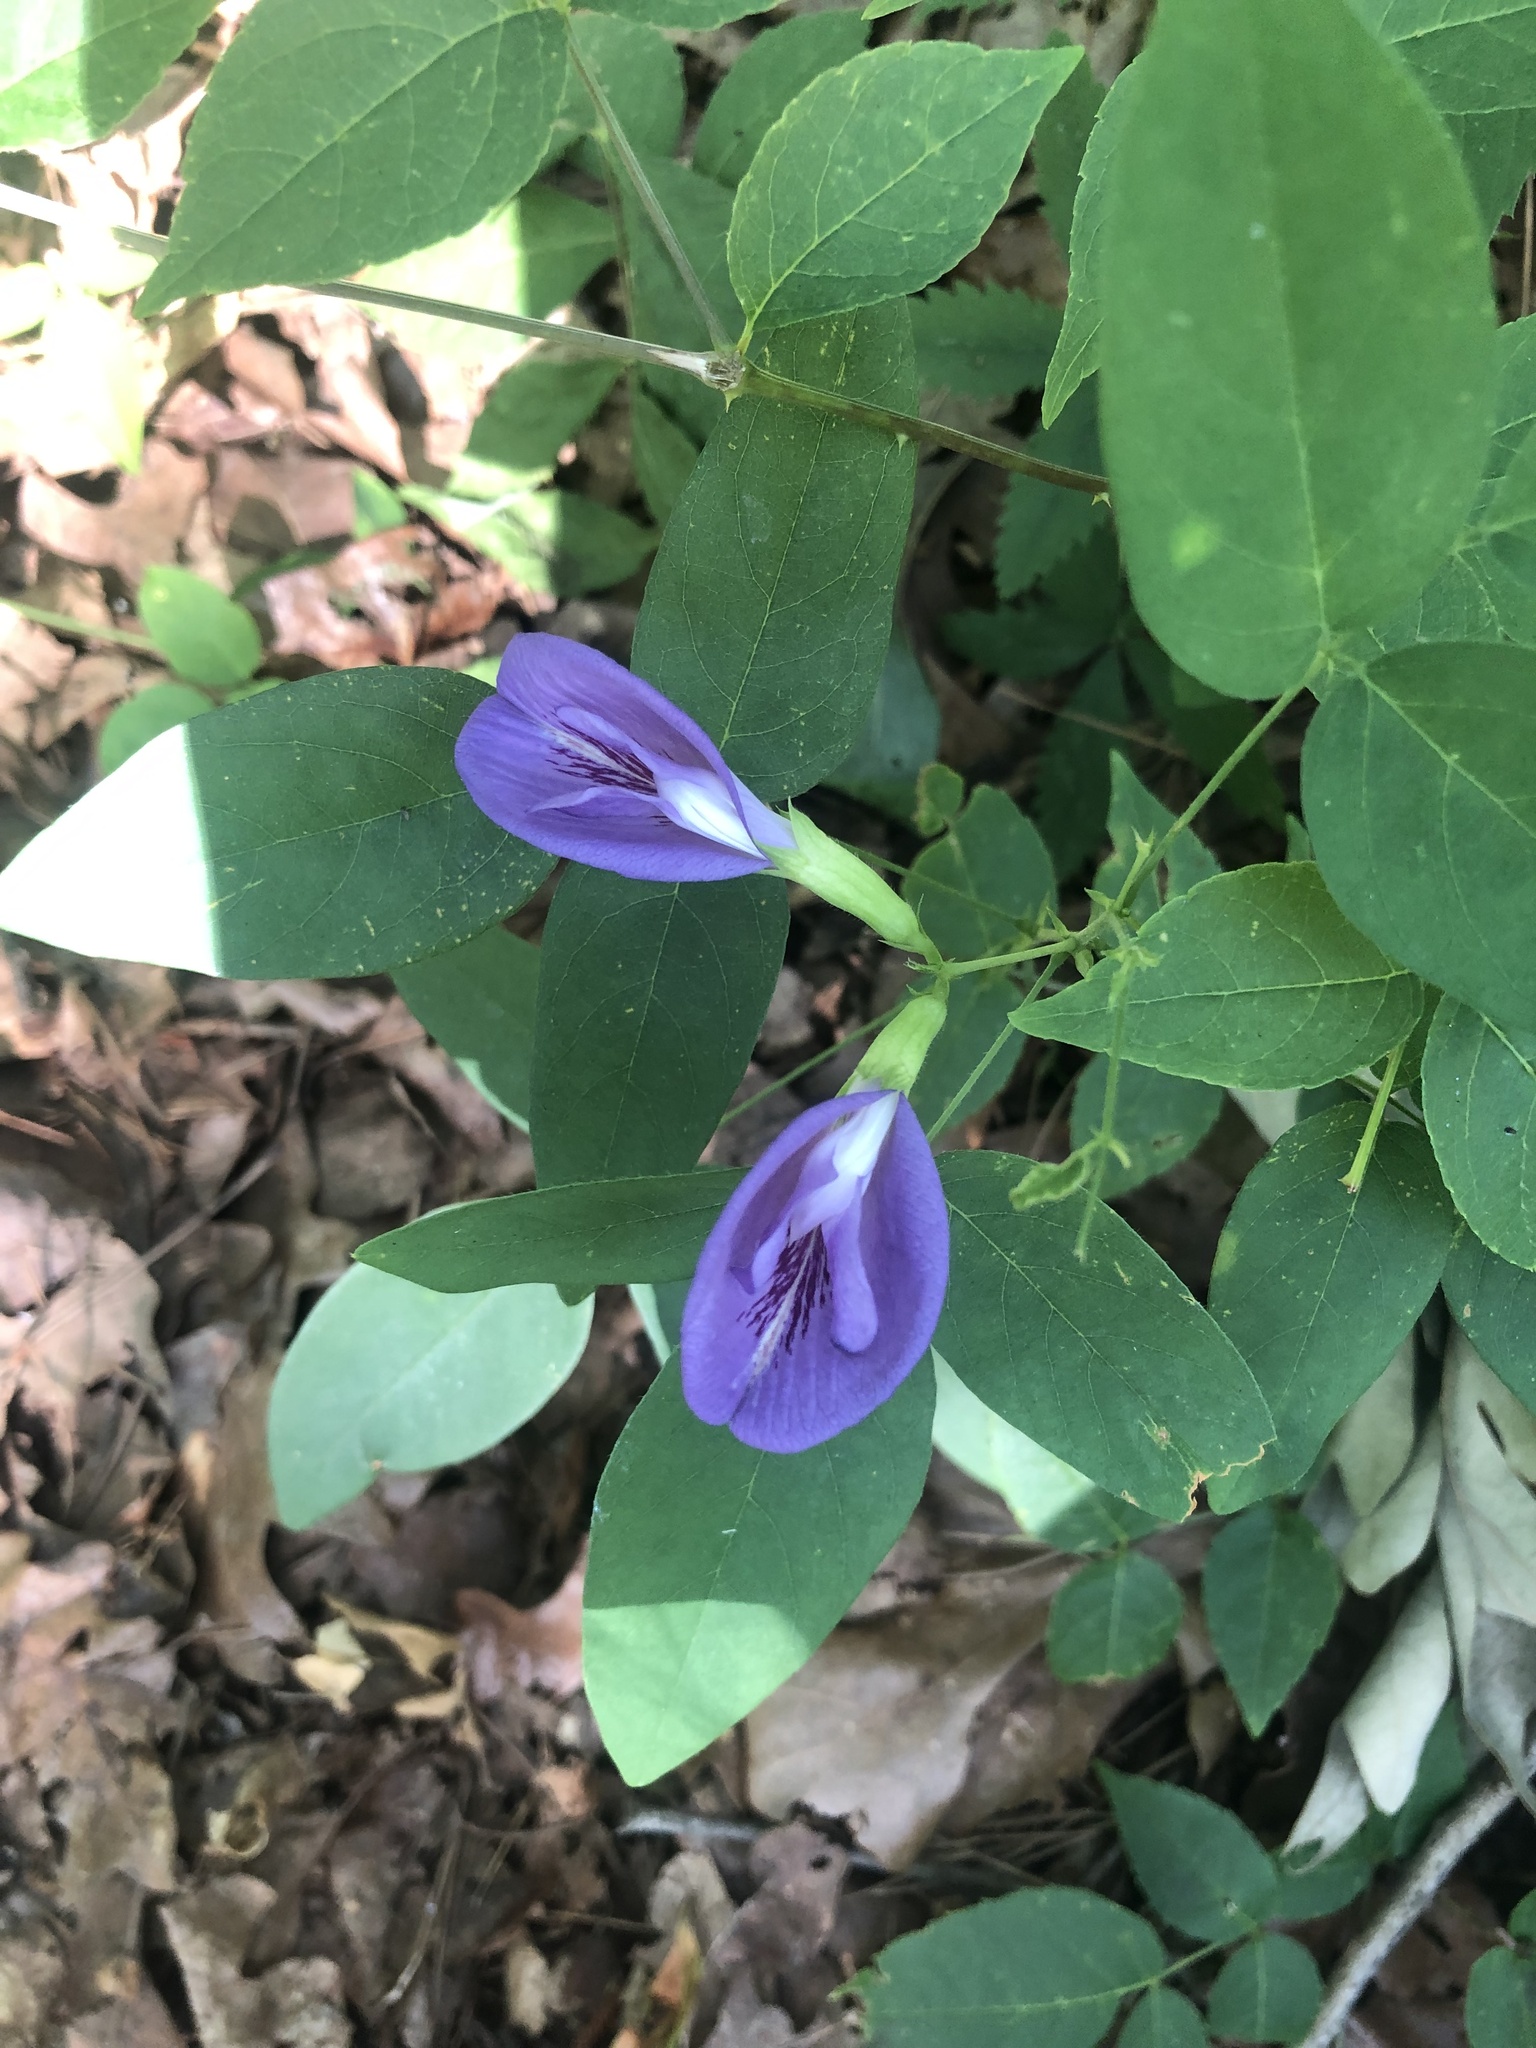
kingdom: Plantae
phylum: Tracheophyta
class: Magnoliopsida
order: Fabales
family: Fabaceae
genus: Clitoria
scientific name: Clitoria mariana
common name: Butterfly-pea
